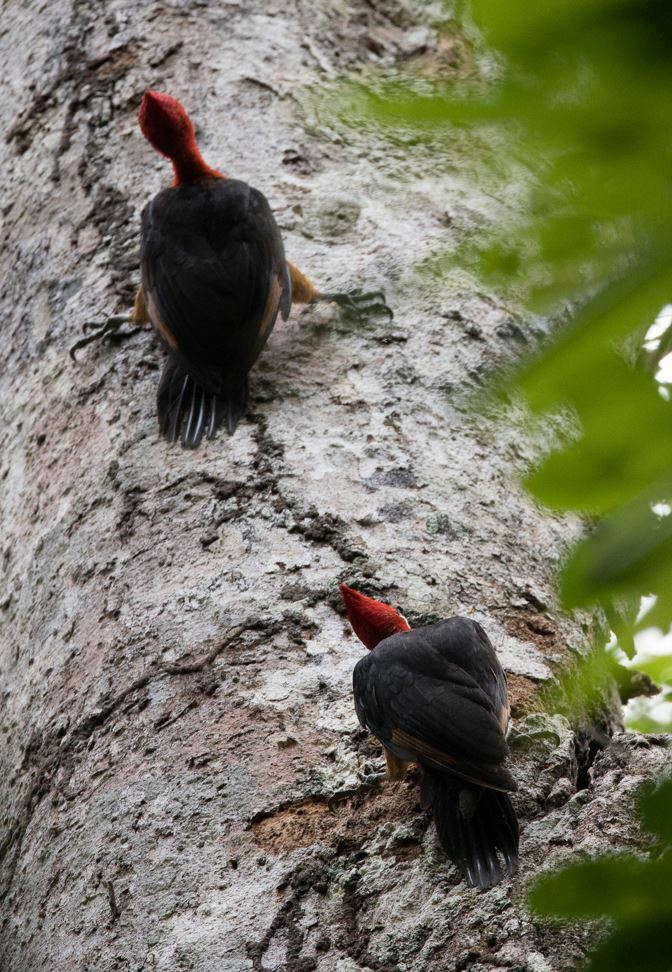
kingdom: Animalia
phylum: Chordata
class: Aves
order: Piciformes
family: Picidae
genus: Campephilus
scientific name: Campephilus rubricollis
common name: Red-necked woodpecker
